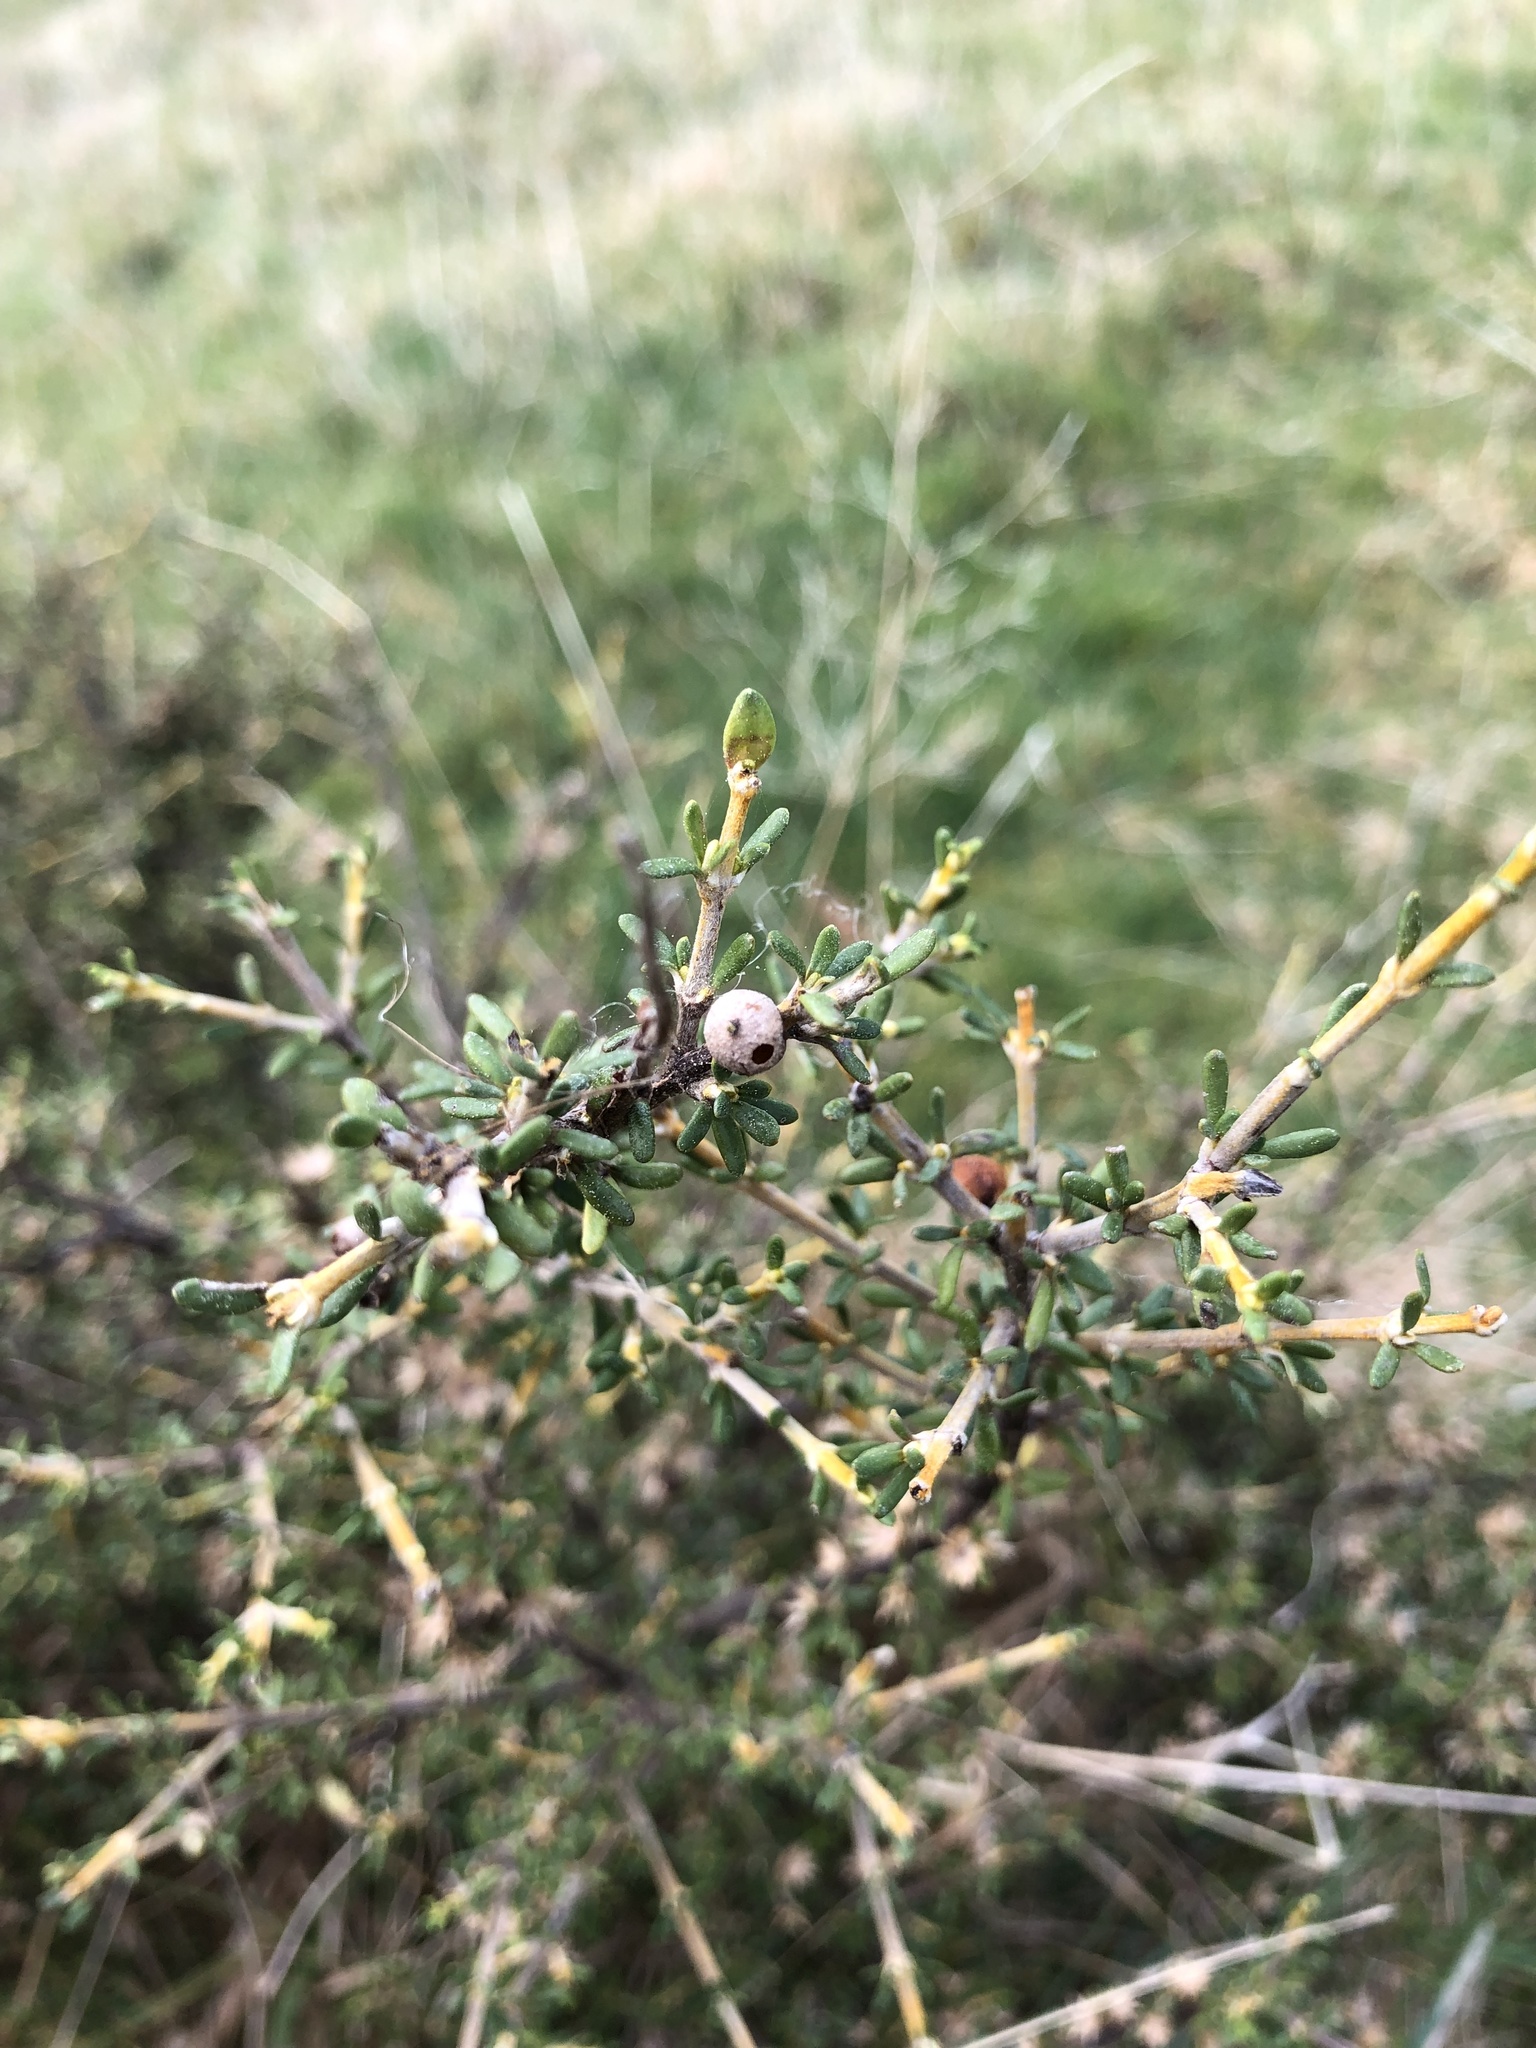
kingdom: Plantae
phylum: Tracheophyta
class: Magnoliopsida
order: Asterales
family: Asteraceae
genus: Olearia
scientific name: Olearia solandri
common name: Coastal daisybush
